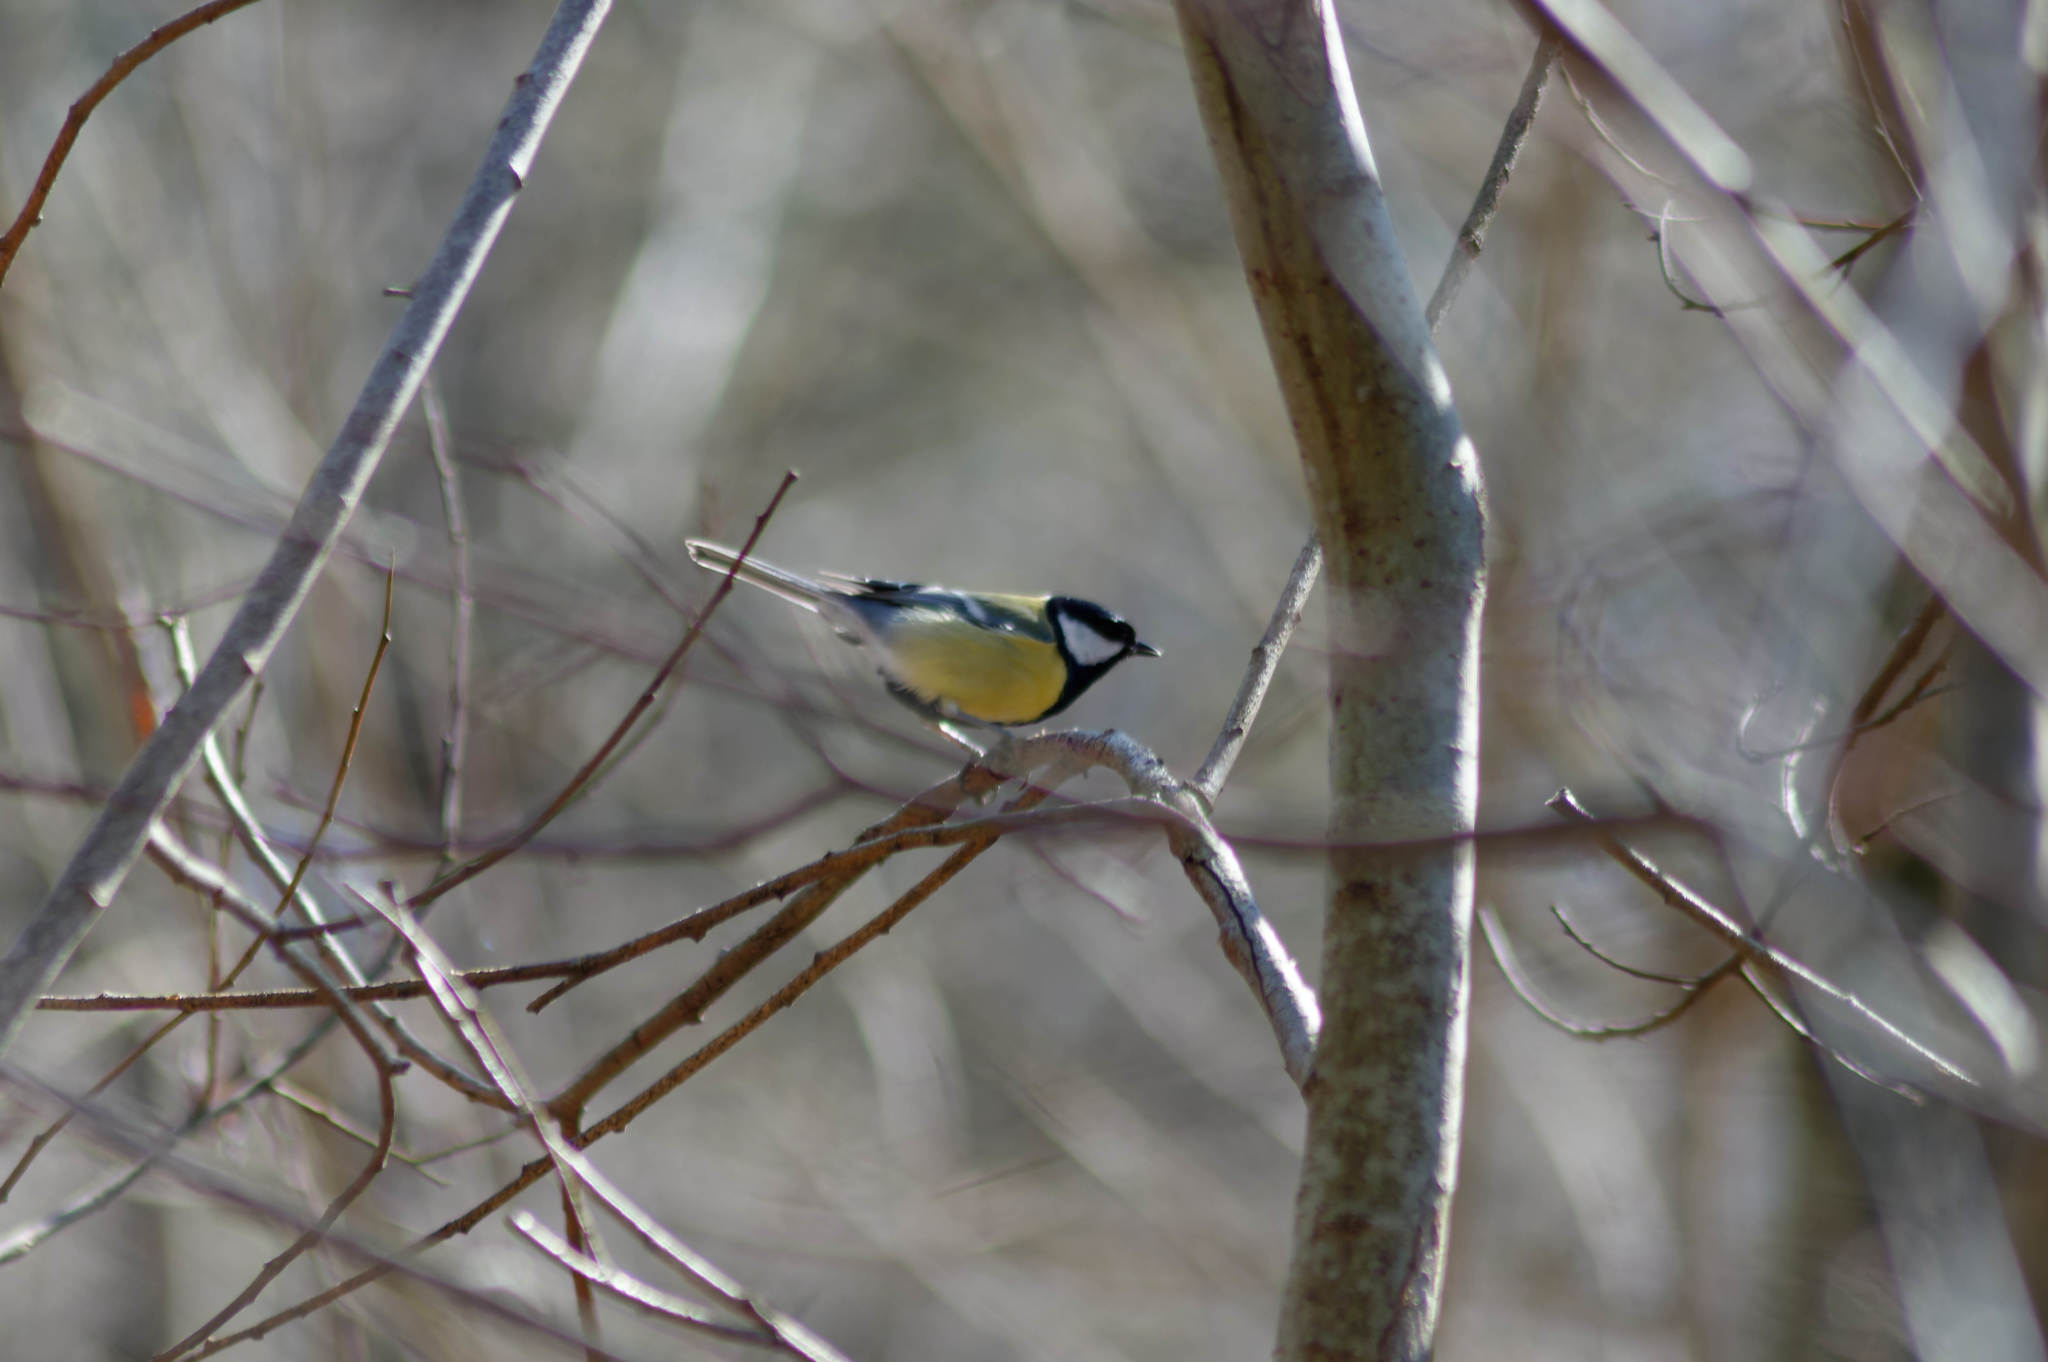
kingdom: Animalia
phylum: Chordata
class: Aves
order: Passeriformes
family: Paridae
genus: Parus
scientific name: Parus major
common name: Great tit
